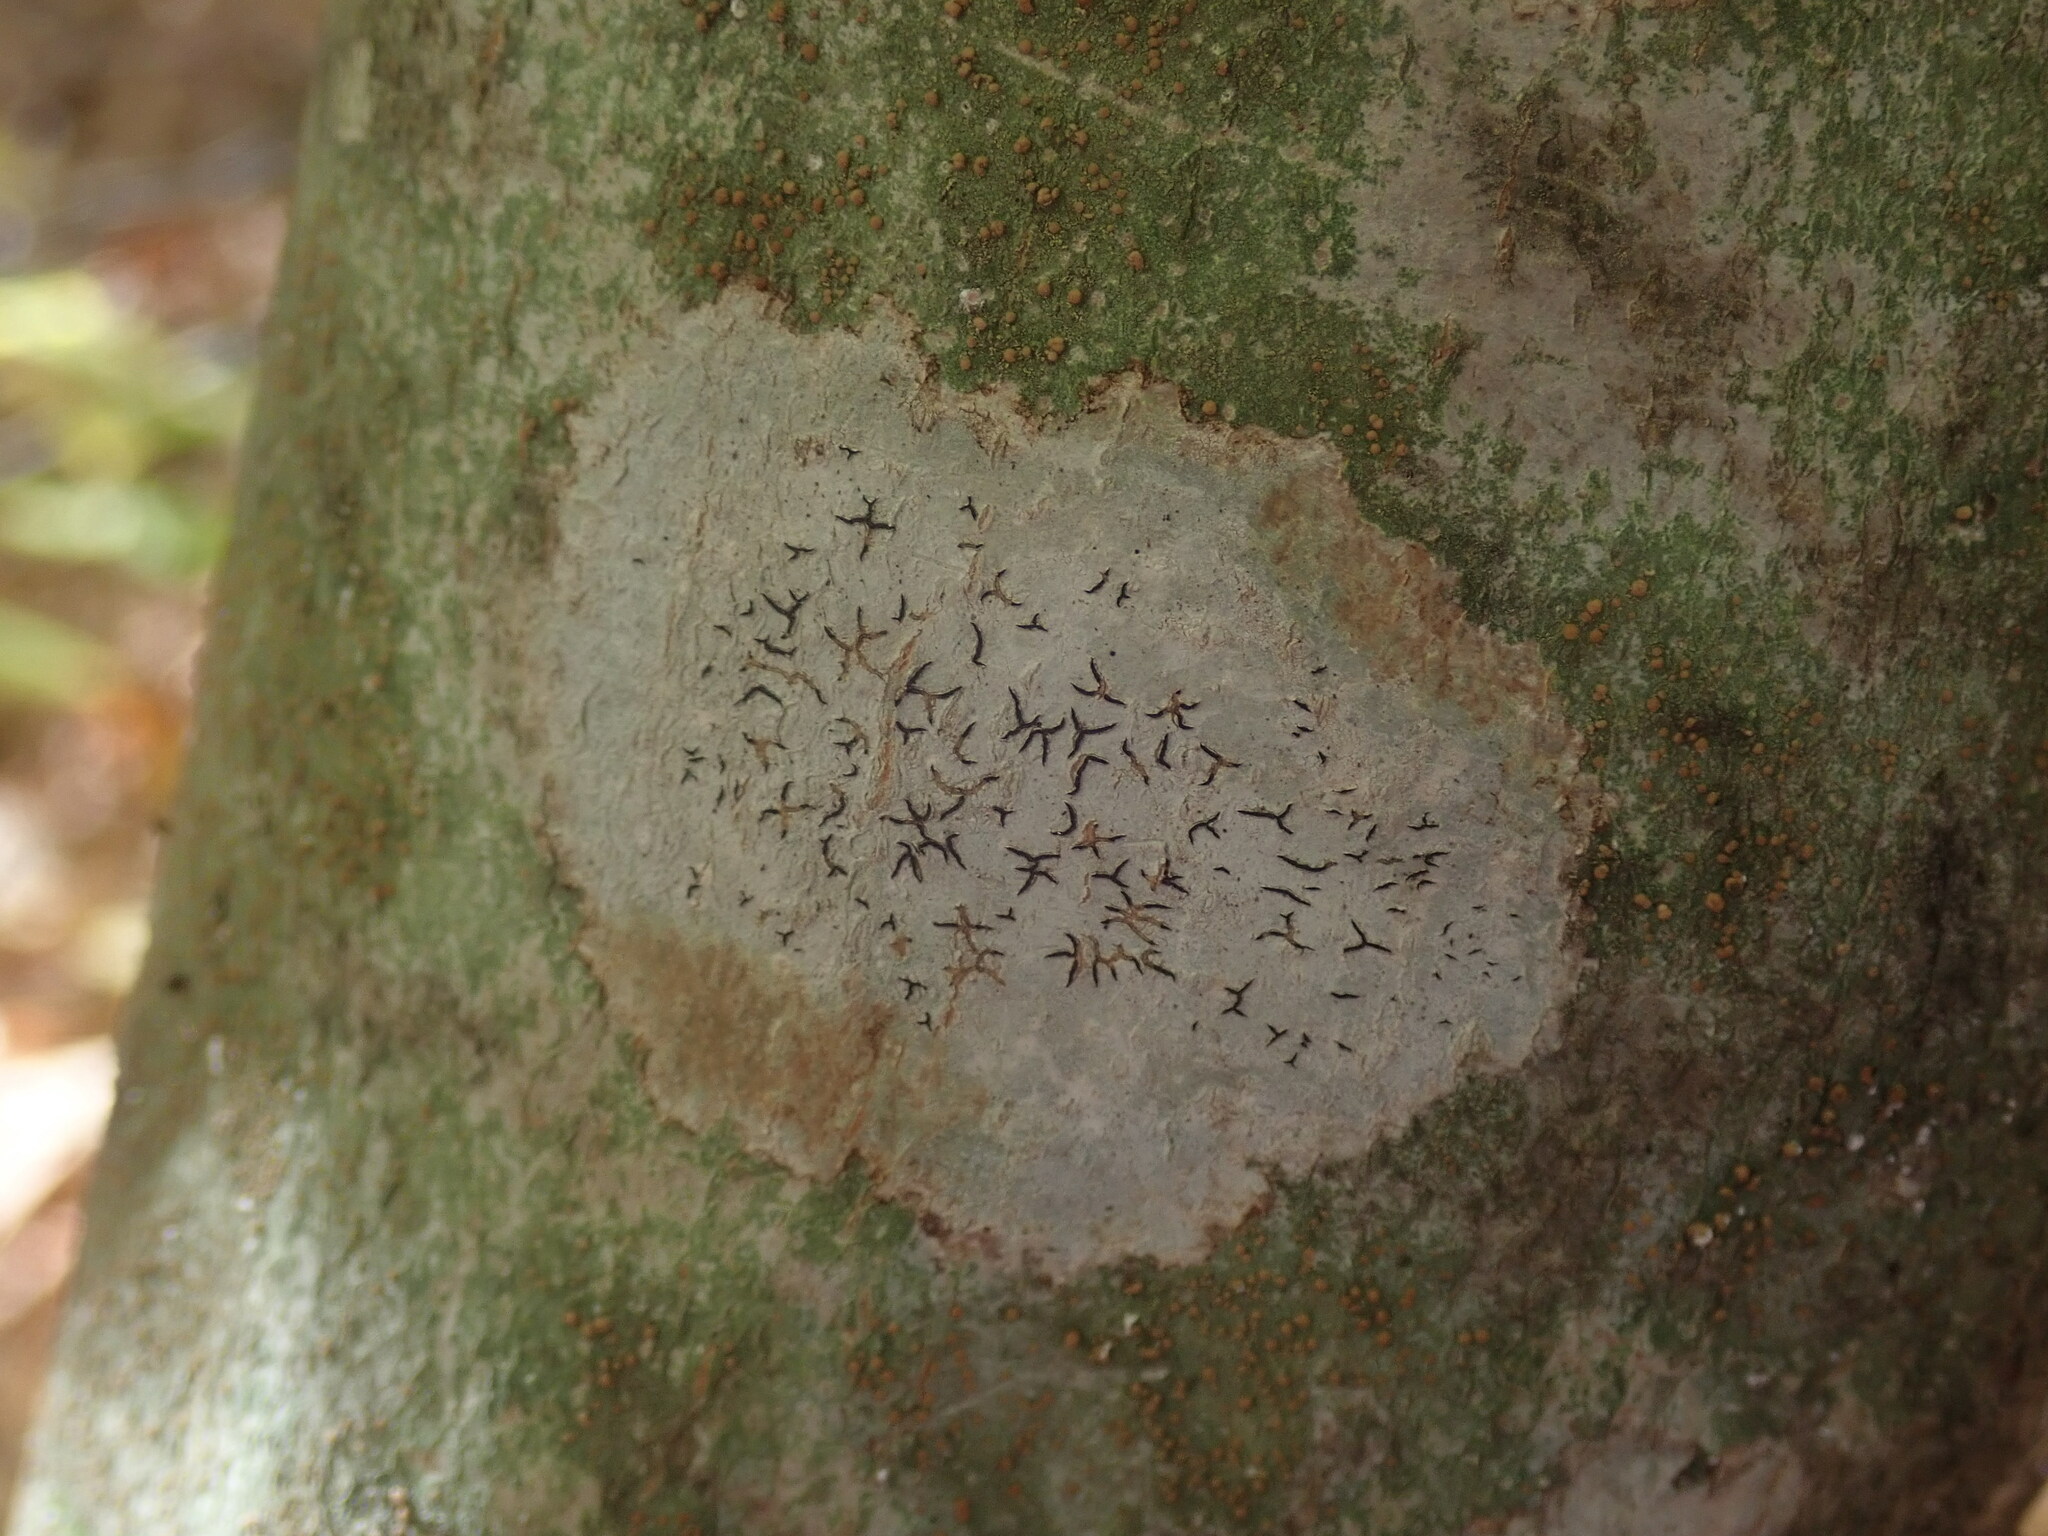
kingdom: Fungi
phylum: Ascomycota
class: Lecanoromycetes
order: Ostropales
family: Graphidaceae
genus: Graphis
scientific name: Graphis scripta
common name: Script lichen
